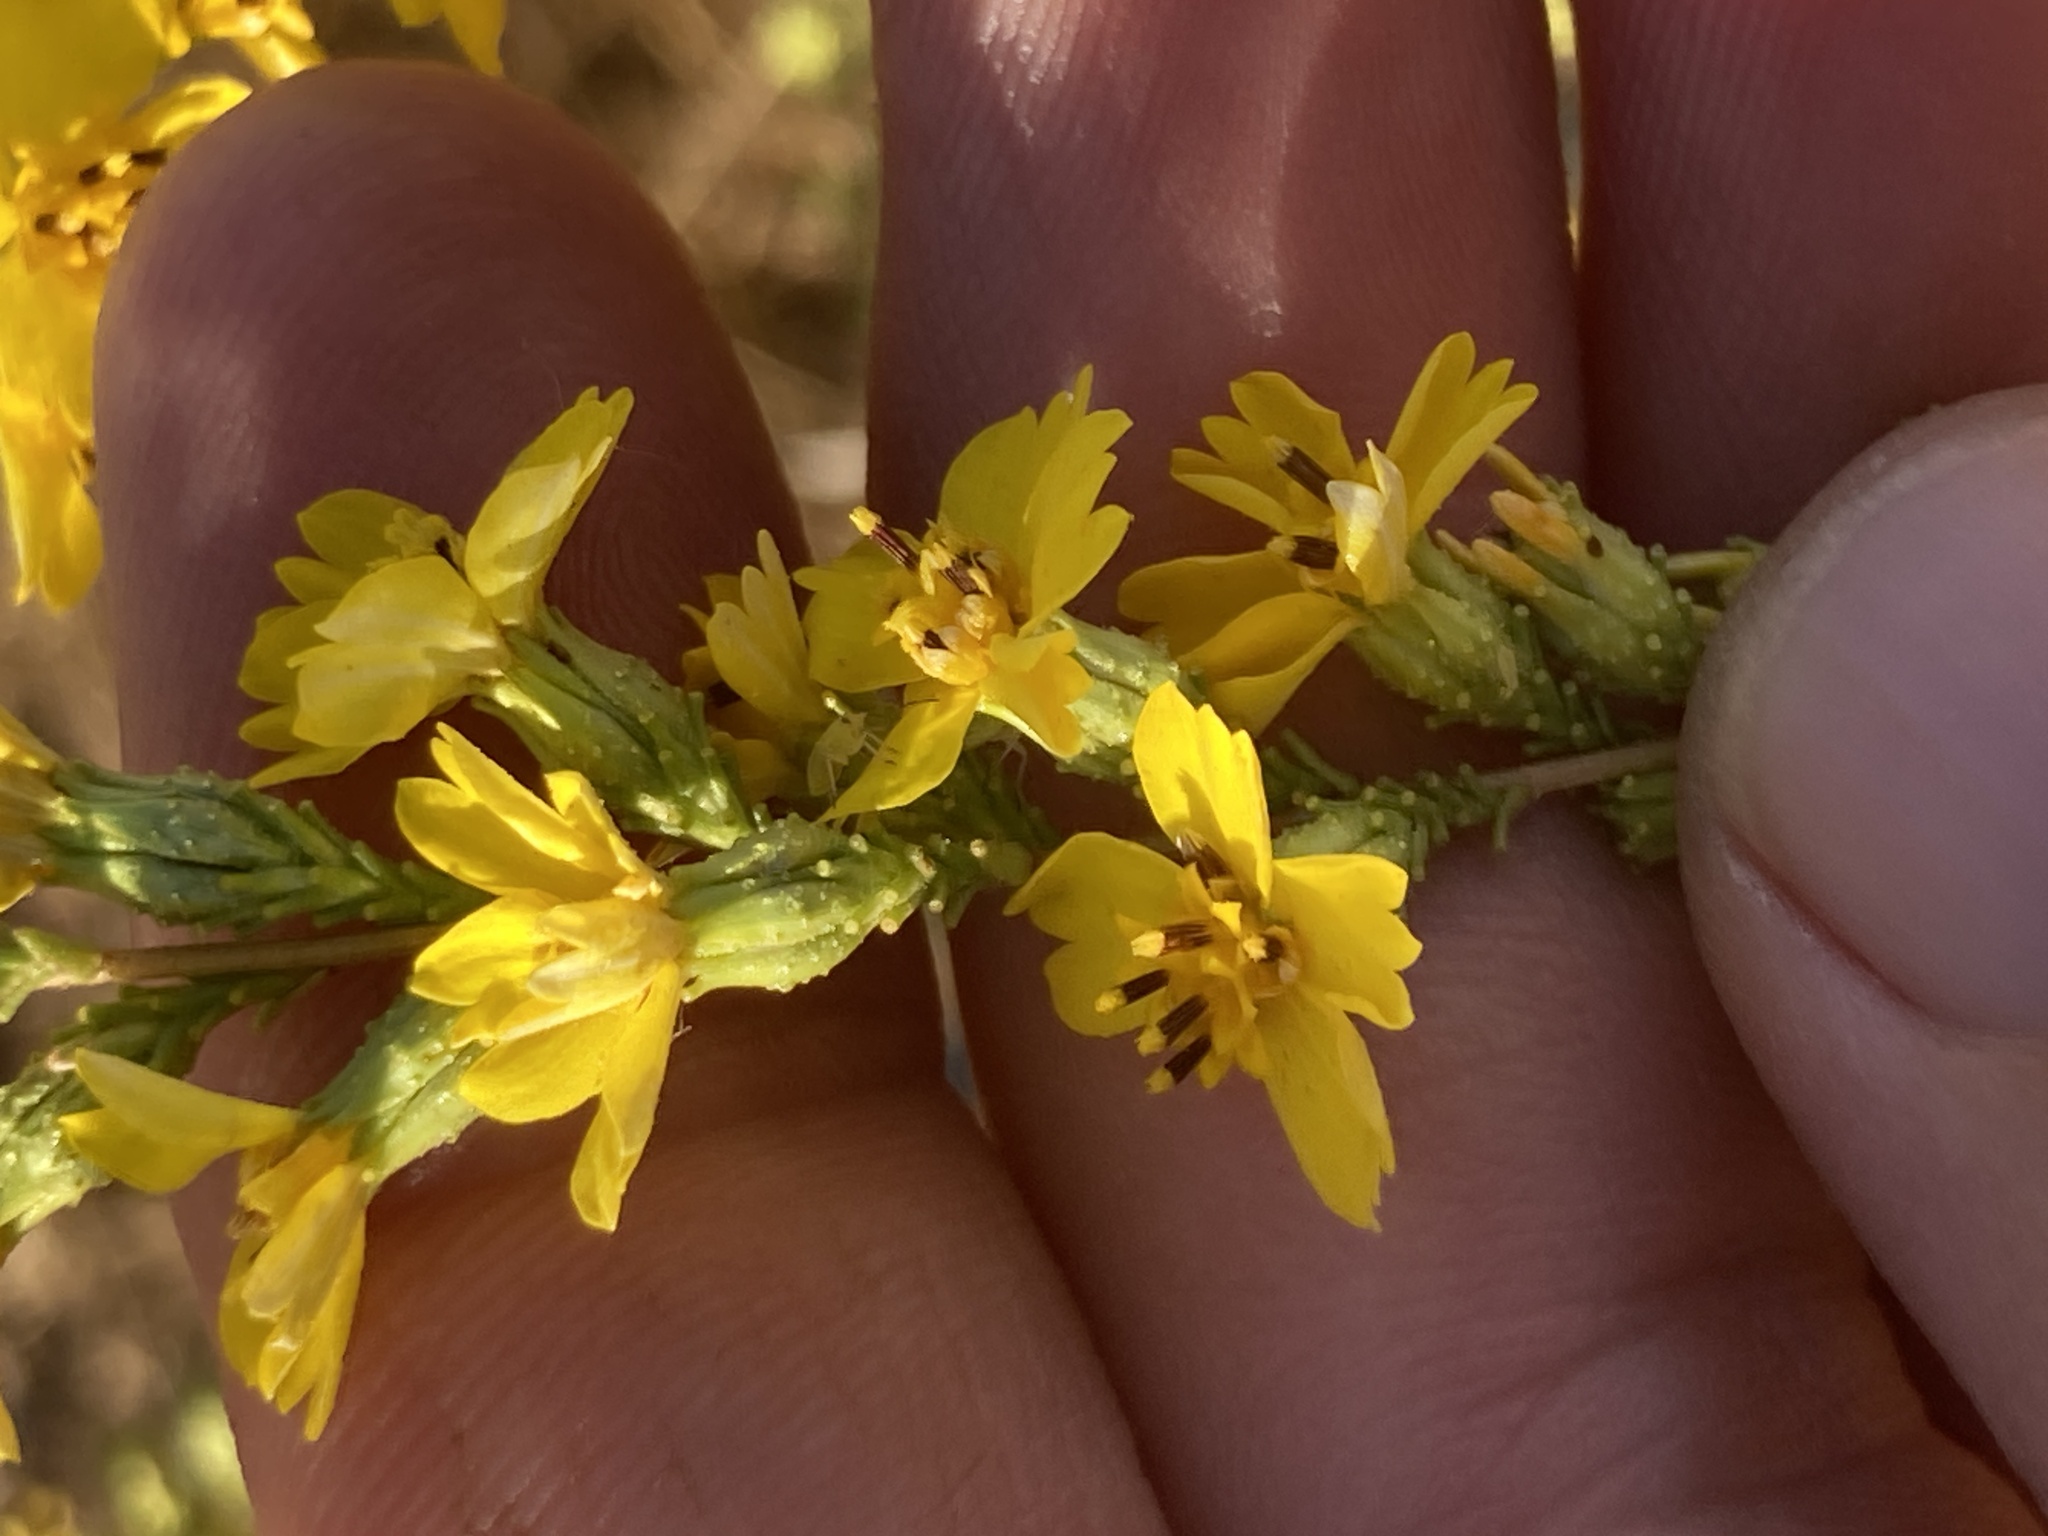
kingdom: Plantae
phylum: Tracheophyta
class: Magnoliopsida
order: Asterales
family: Asteraceae
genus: Holocarpha
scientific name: Holocarpha virgata
